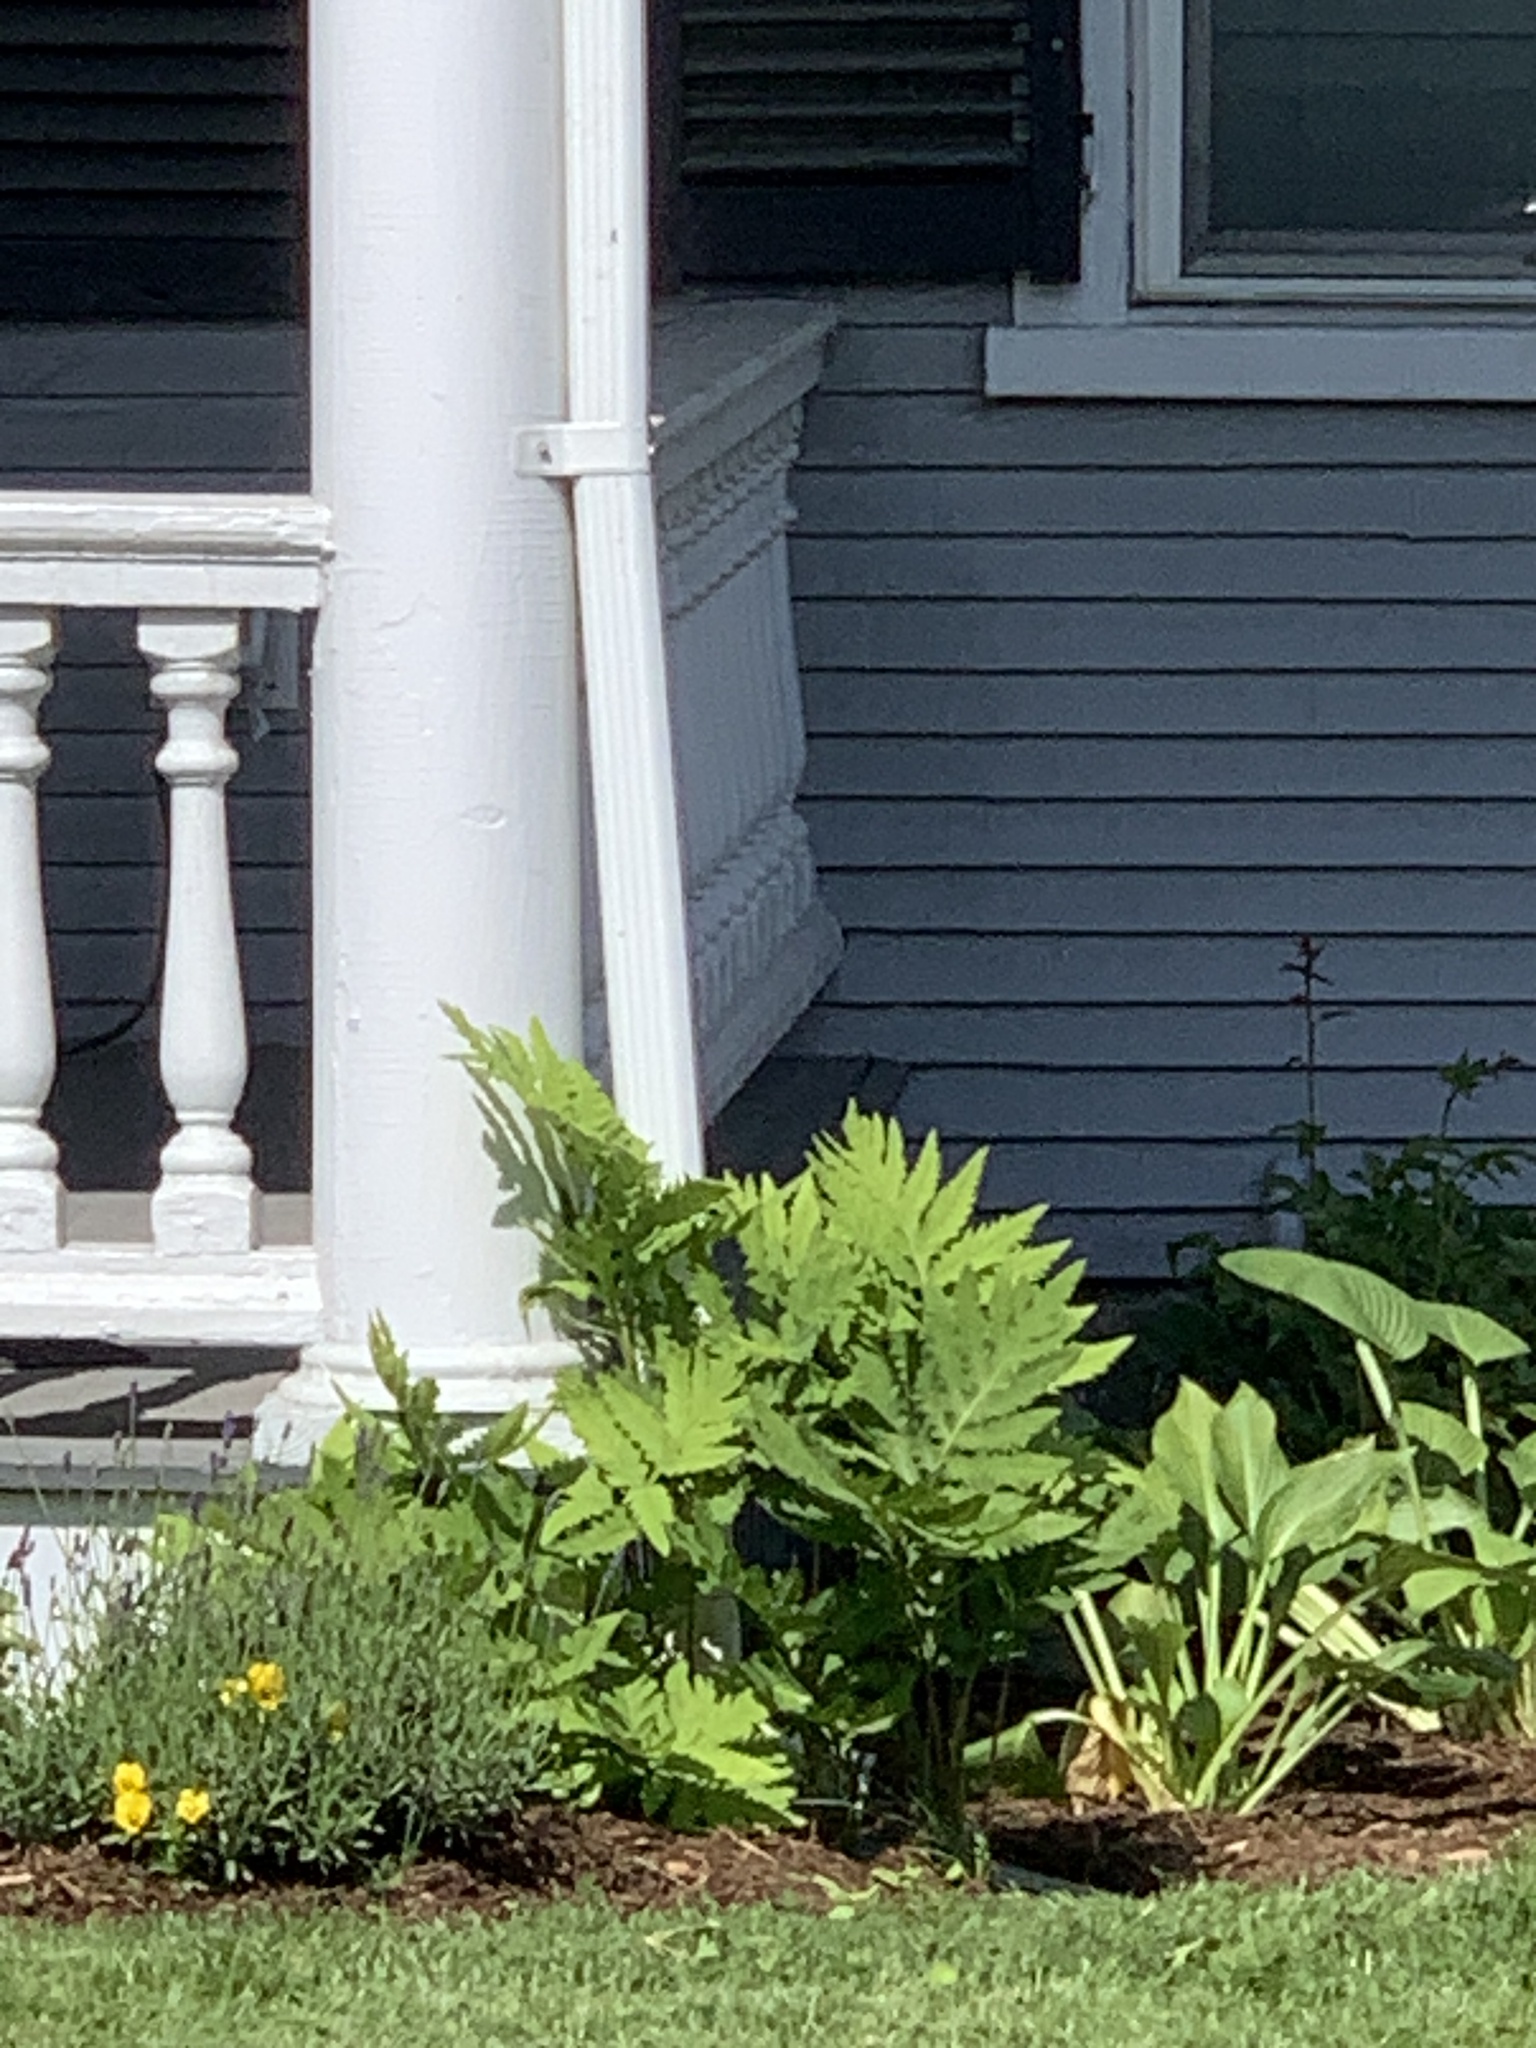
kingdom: Plantae
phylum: Tracheophyta
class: Polypodiopsida
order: Polypodiales
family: Onocleaceae
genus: Onoclea
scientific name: Onoclea sensibilis
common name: Sensitive fern
